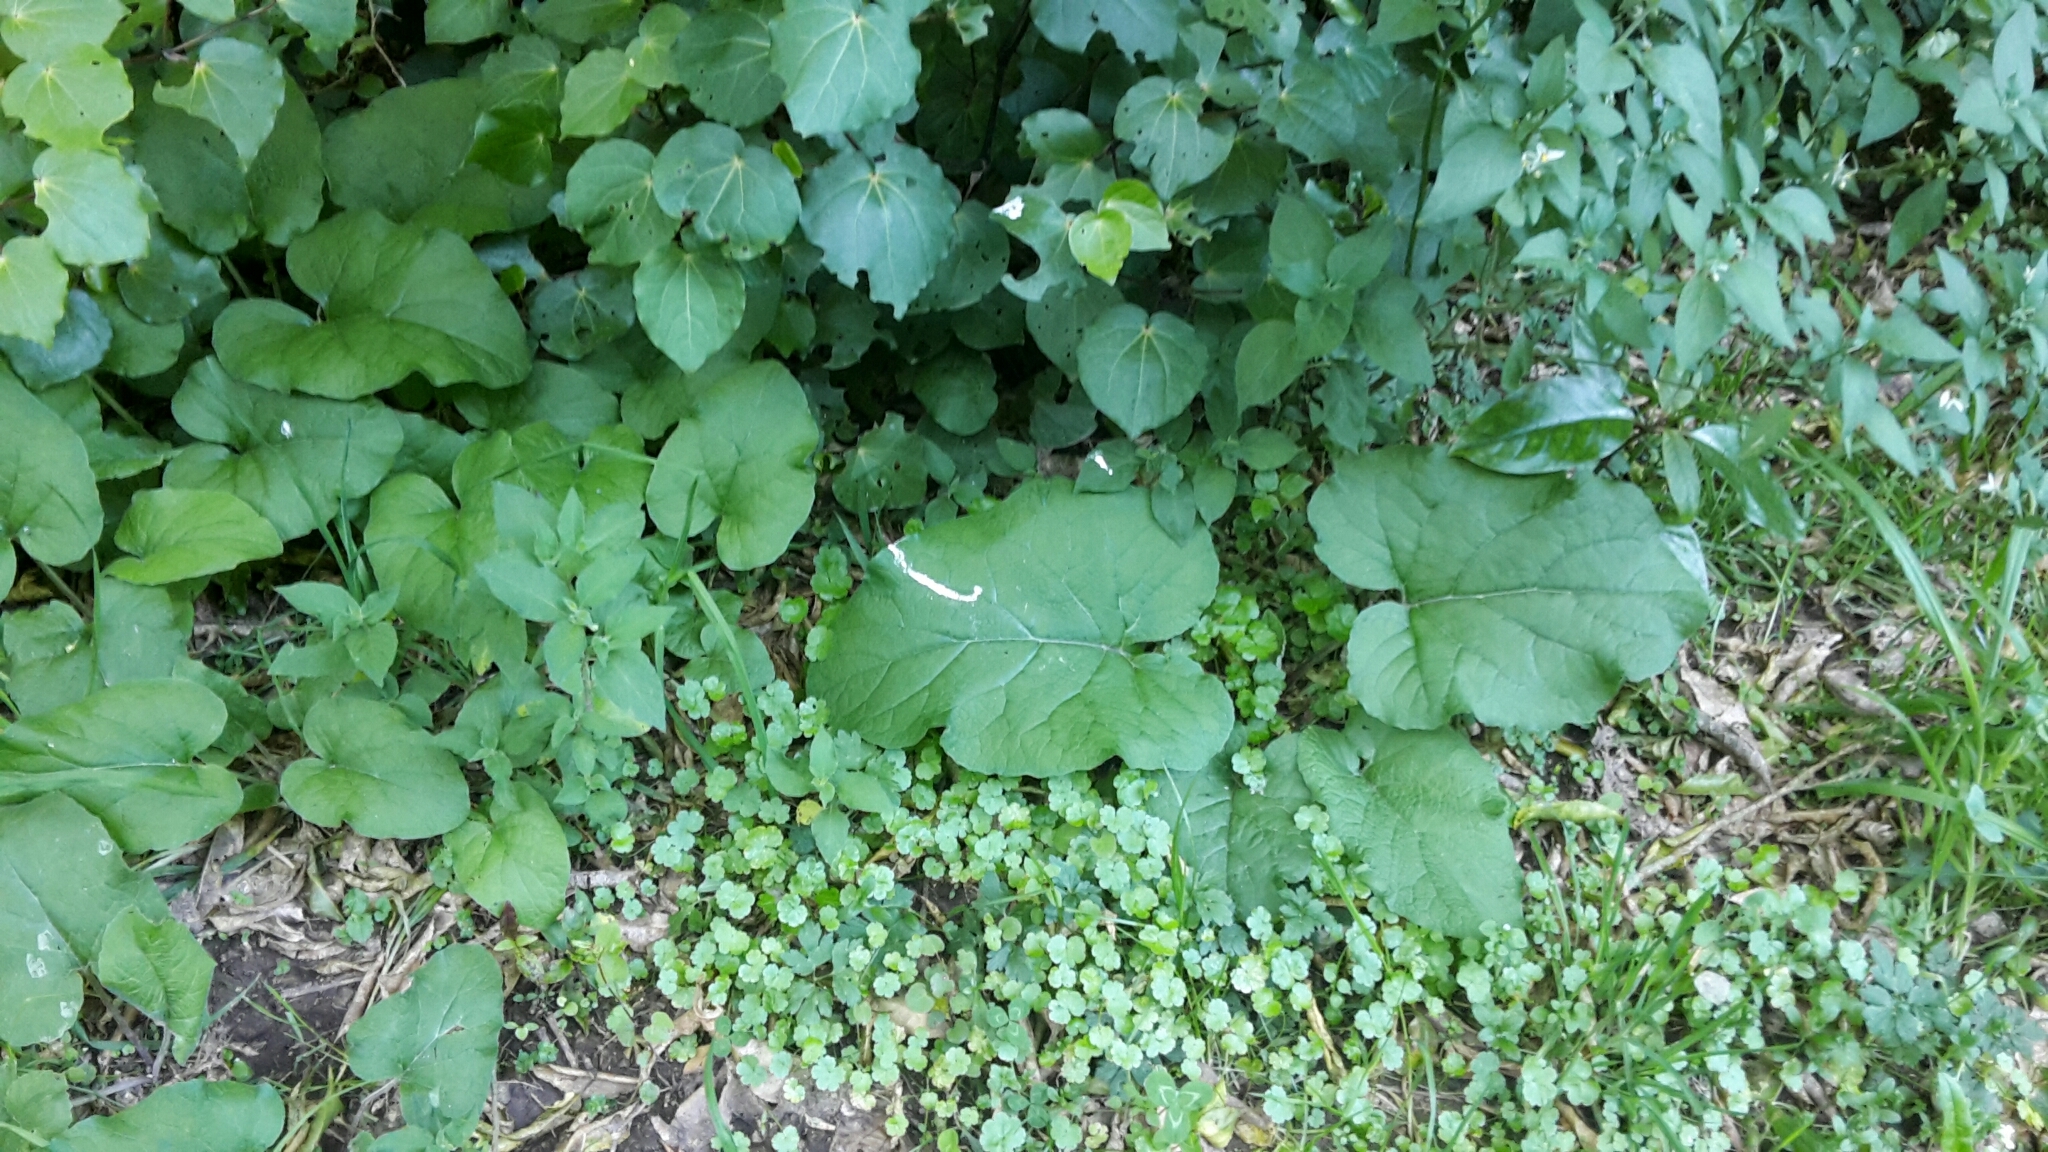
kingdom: Plantae
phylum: Tracheophyta
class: Magnoliopsida
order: Asterales
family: Asteraceae
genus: Arctium
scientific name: Arctium lappa
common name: Greater burdock
